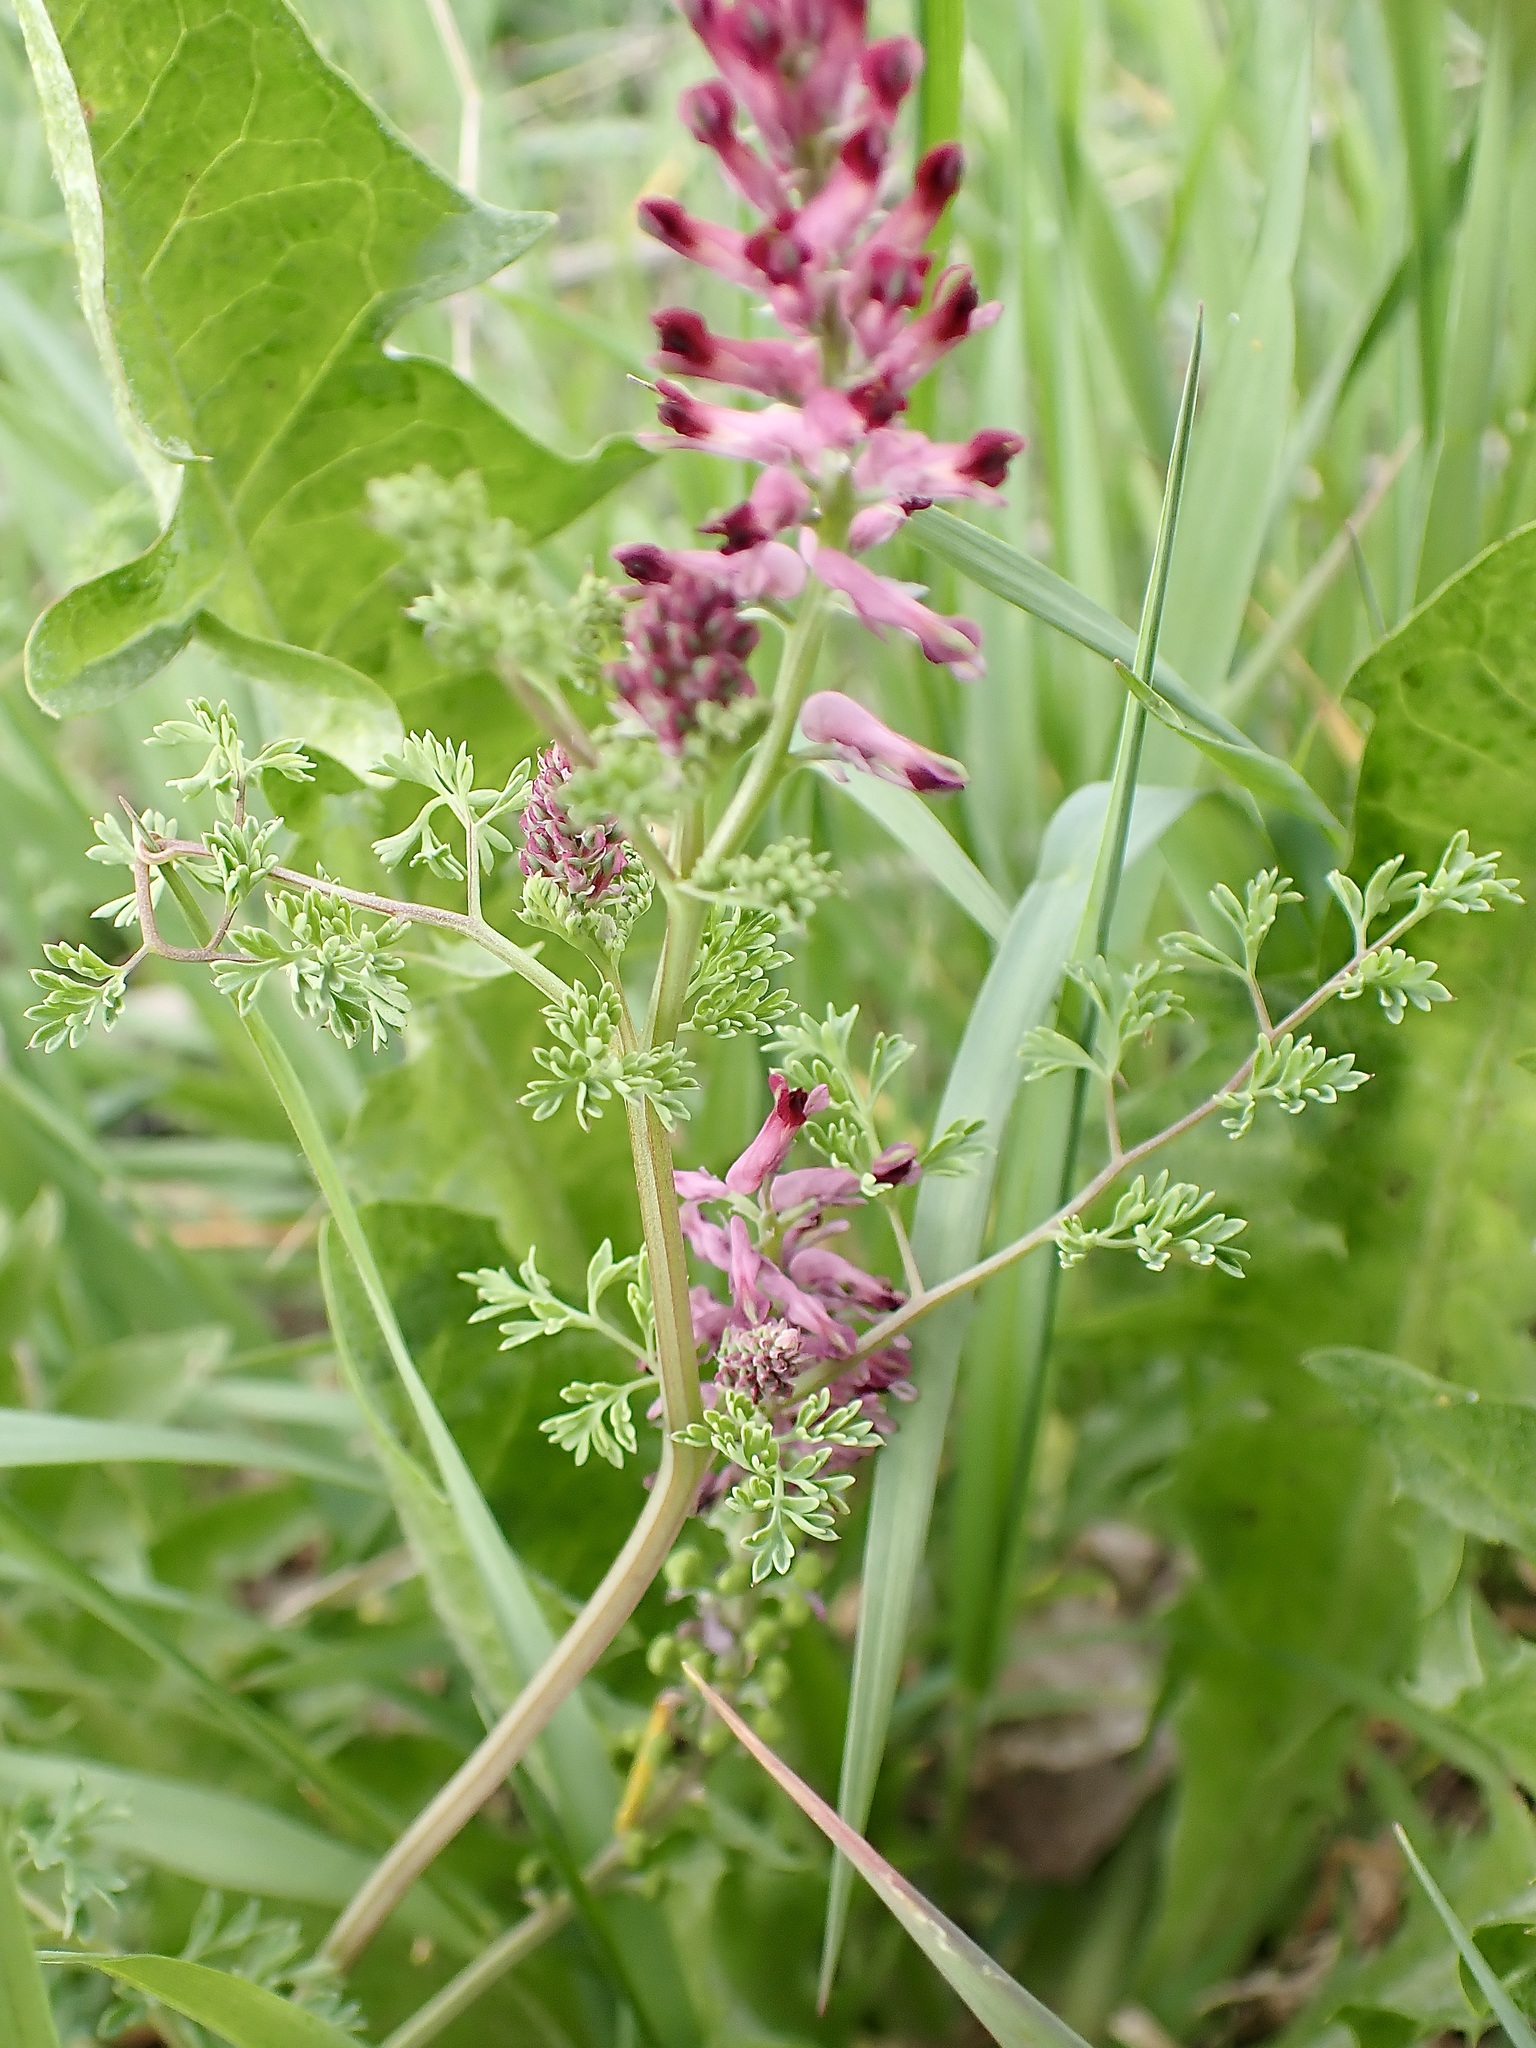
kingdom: Plantae
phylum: Tracheophyta
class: Magnoliopsida
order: Ranunculales
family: Papaveraceae
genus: Fumaria
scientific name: Fumaria officinalis
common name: Common fumitory
